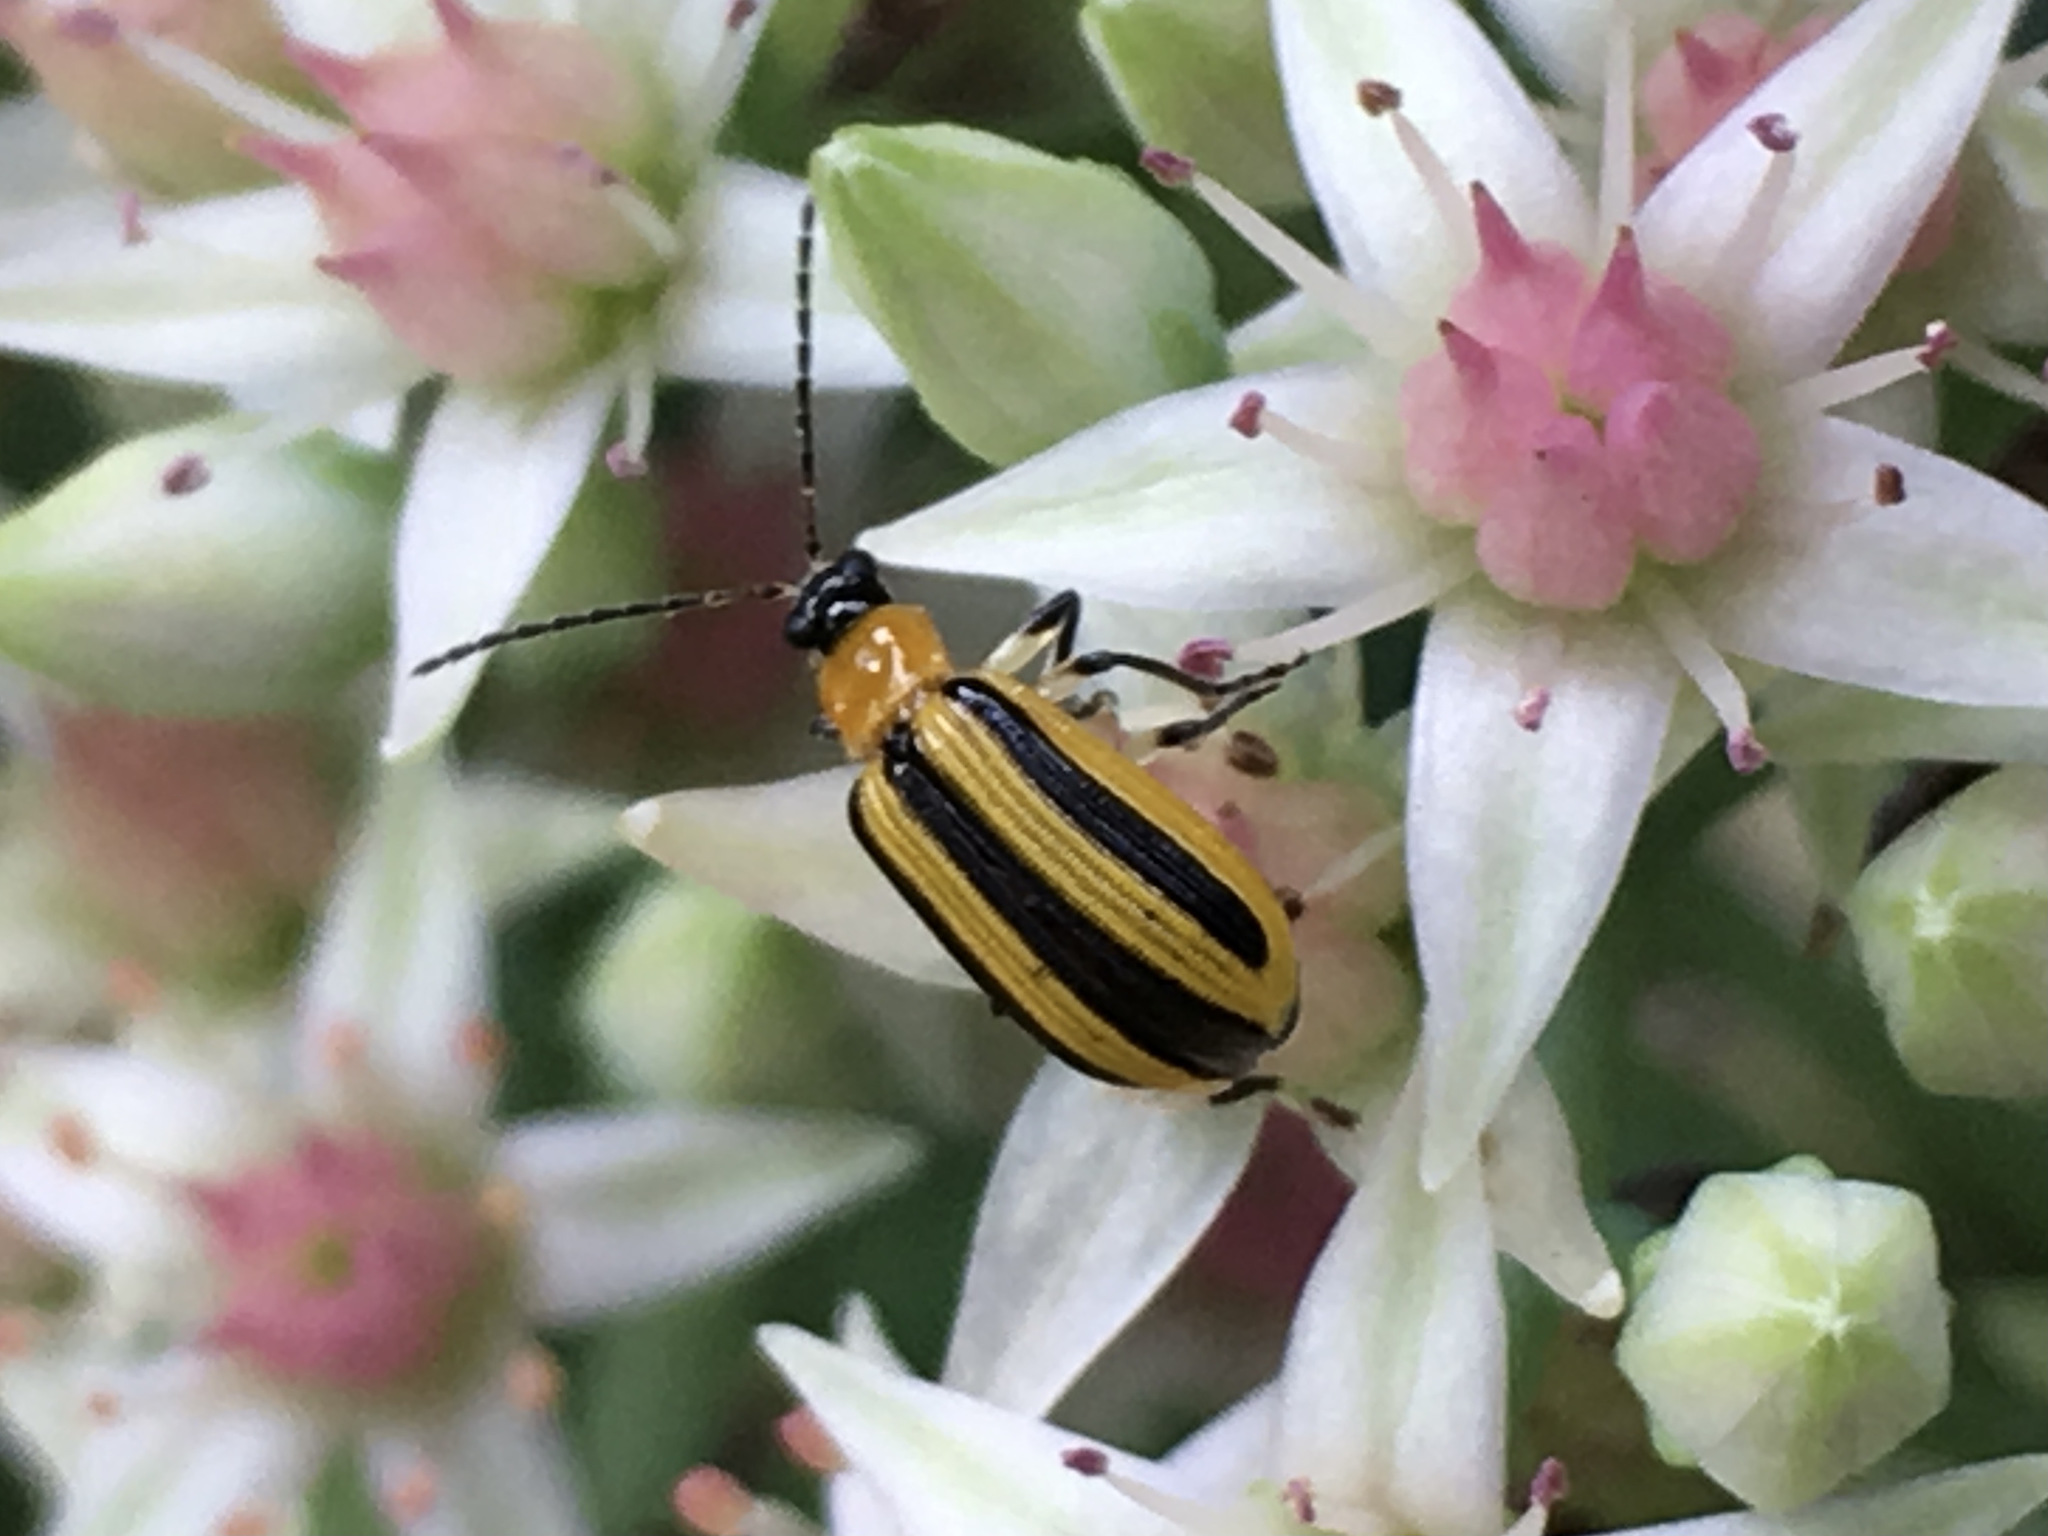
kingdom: Animalia
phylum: Arthropoda
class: Insecta
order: Coleoptera
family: Chrysomelidae
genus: Acalymma
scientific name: Acalymma vittatum
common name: Striped cucumber beetle
